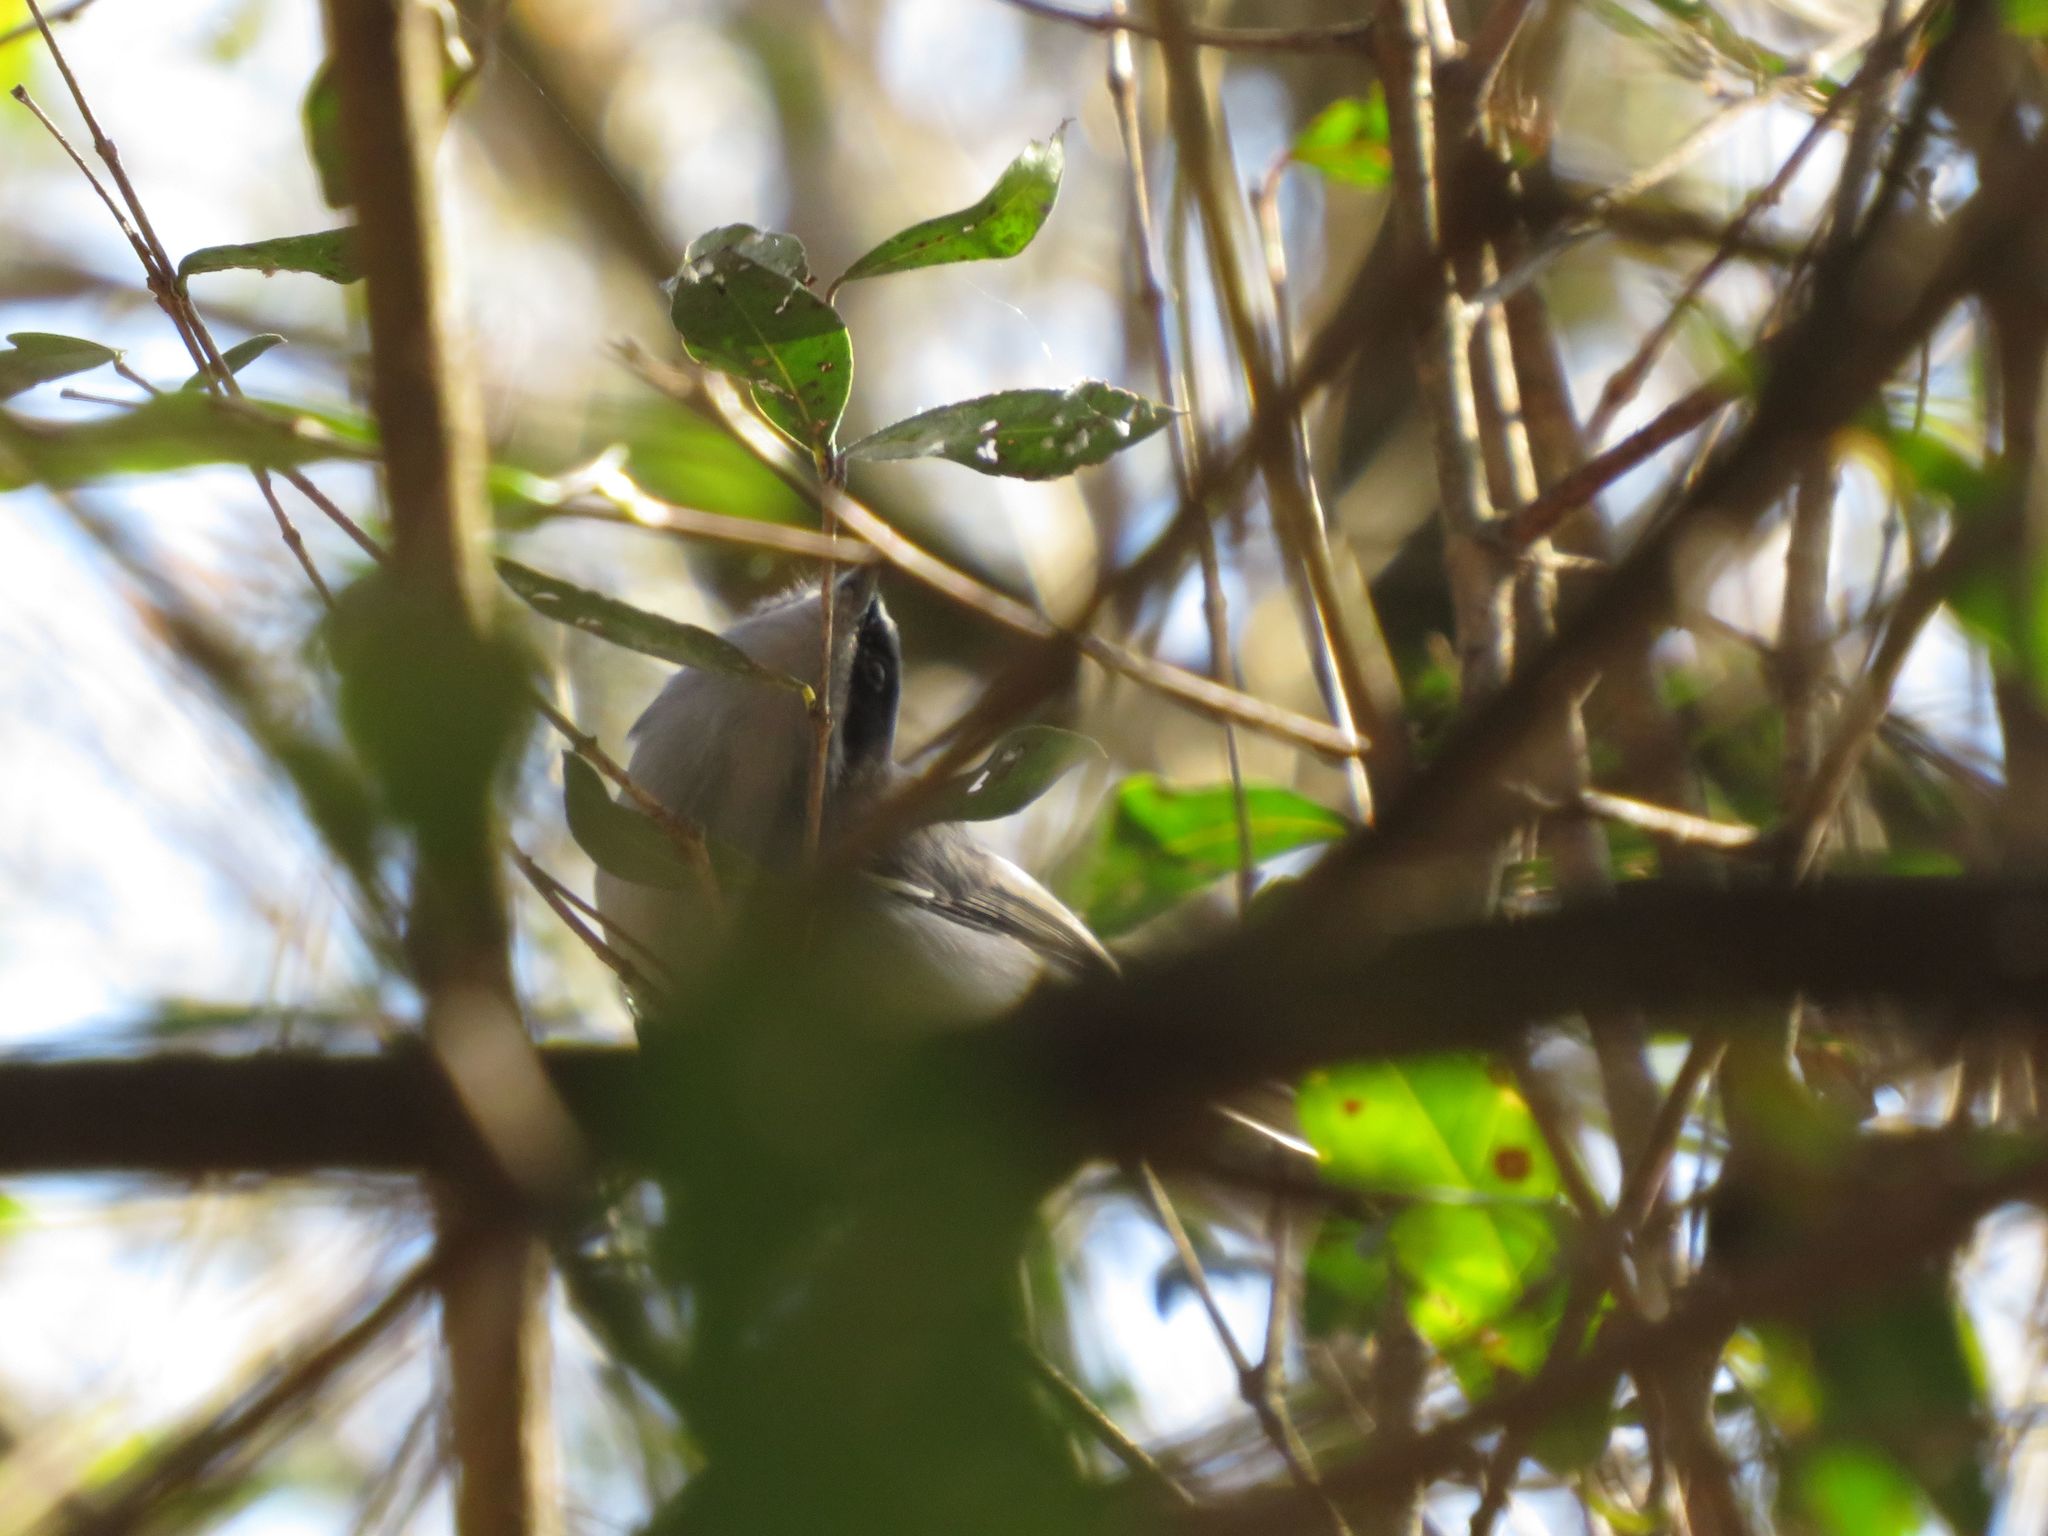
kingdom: Animalia
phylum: Chordata
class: Aves
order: Passeriformes
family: Polioptilidae
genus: Polioptila
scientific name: Polioptila dumicola
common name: Masked gnatcatcher
